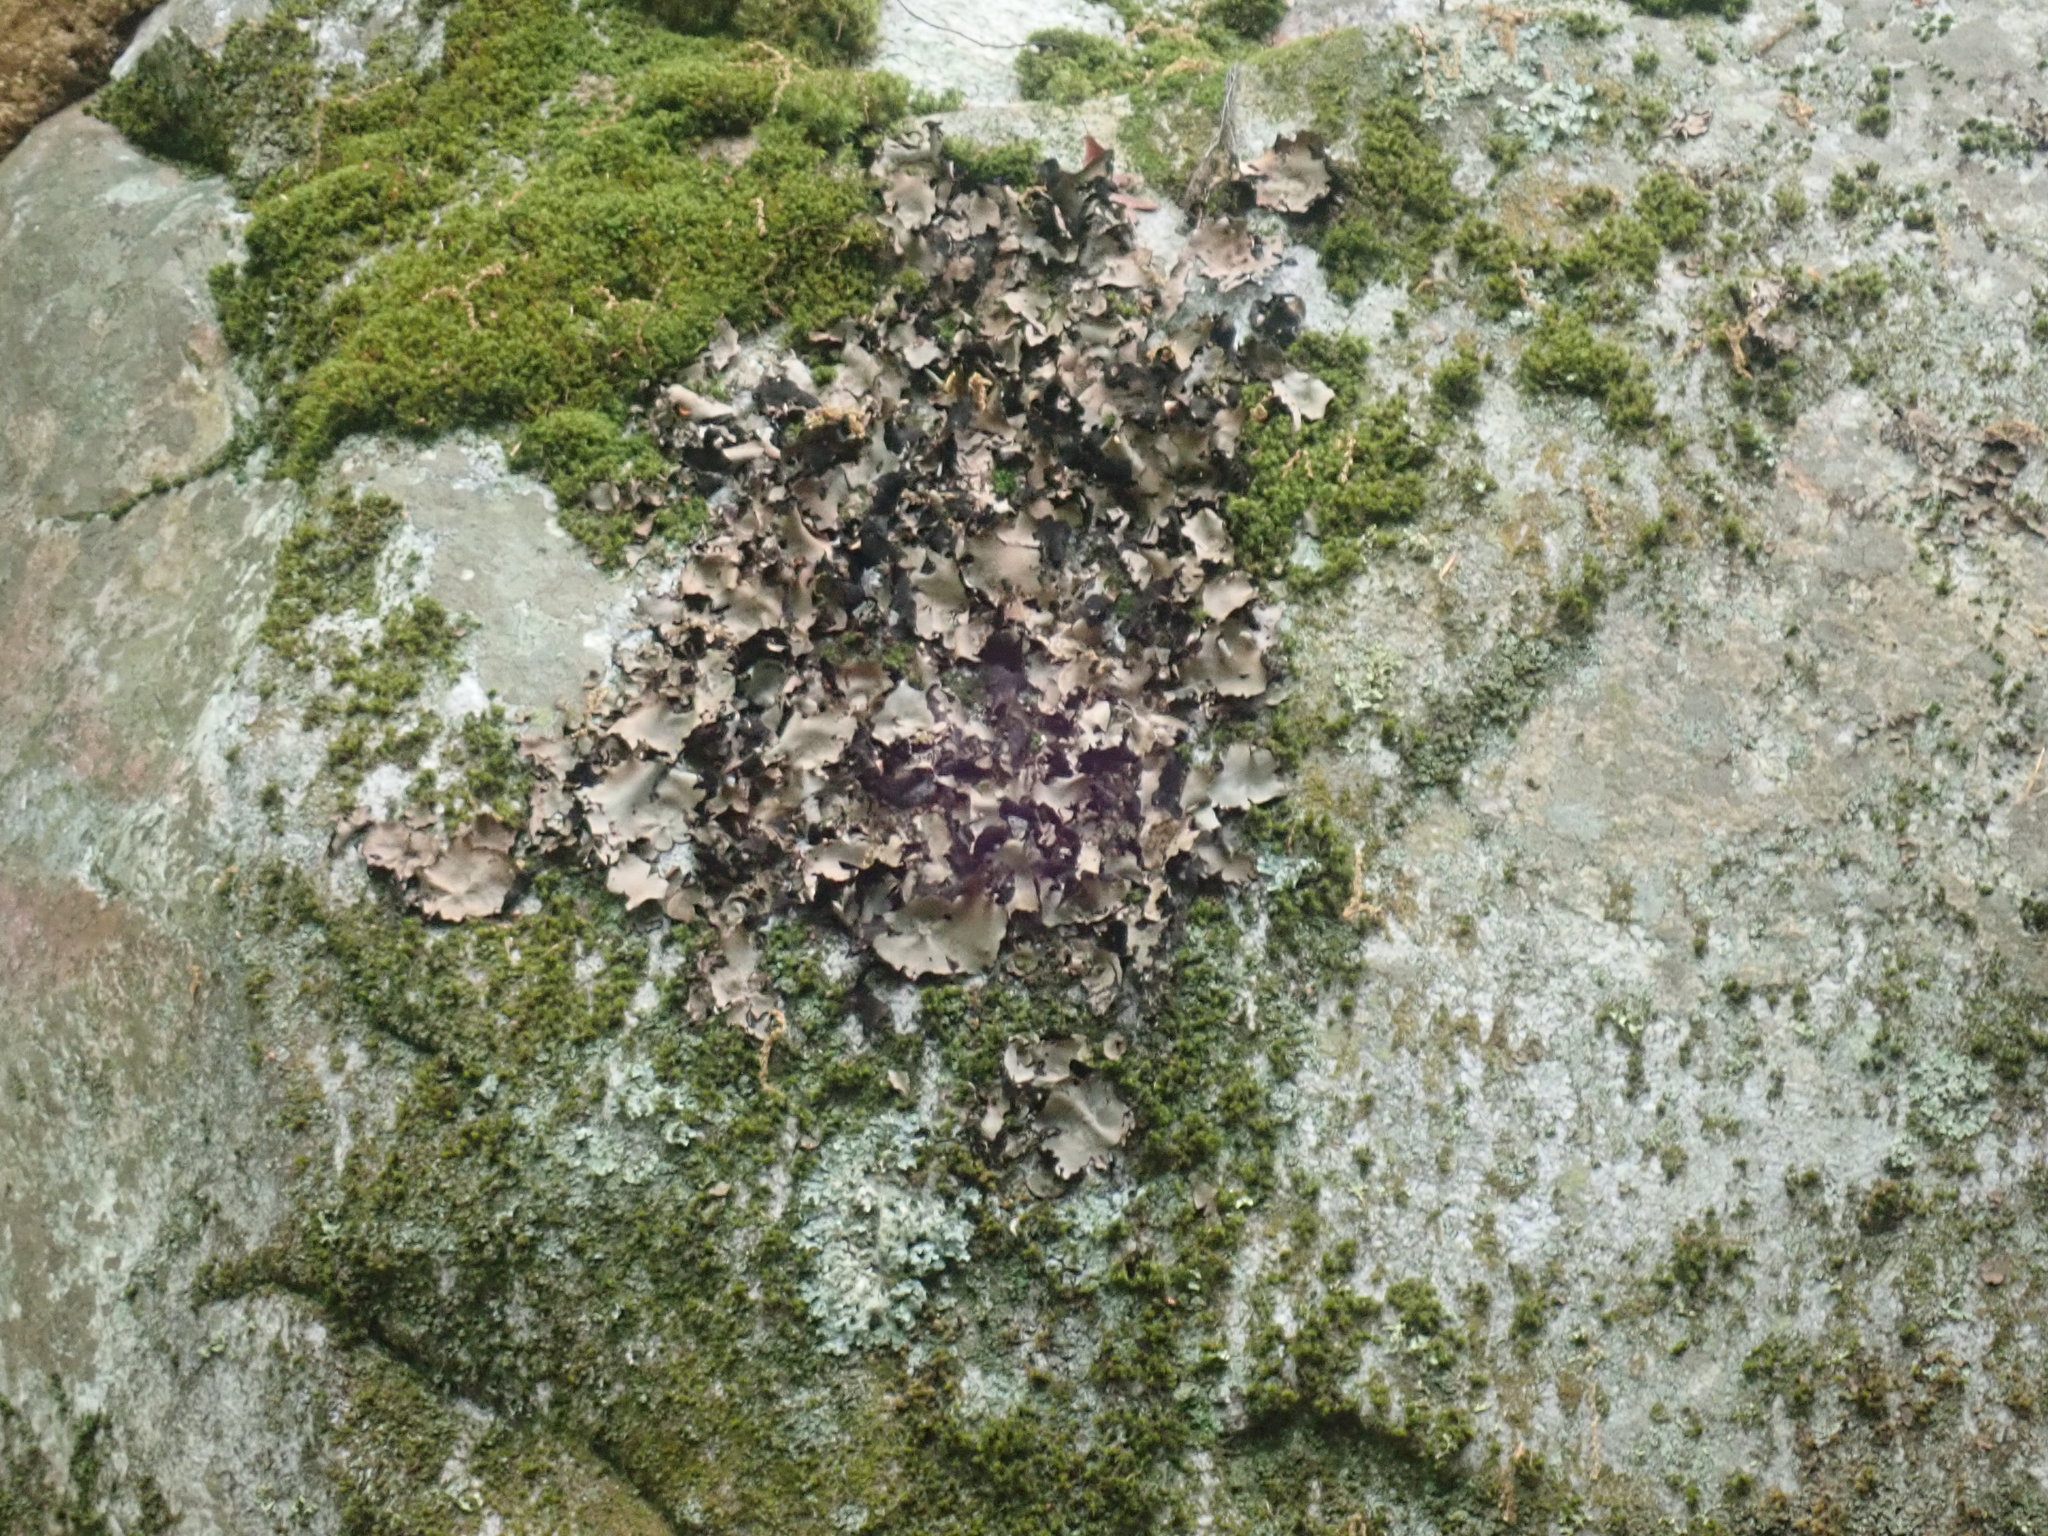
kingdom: Fungi
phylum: Ascomycota
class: Lecanoromycetes
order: Umbilicariales
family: Umbilicariaceae
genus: Umbilicaria
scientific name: Umbilicaria mammulata
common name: Smooth rock tripe
